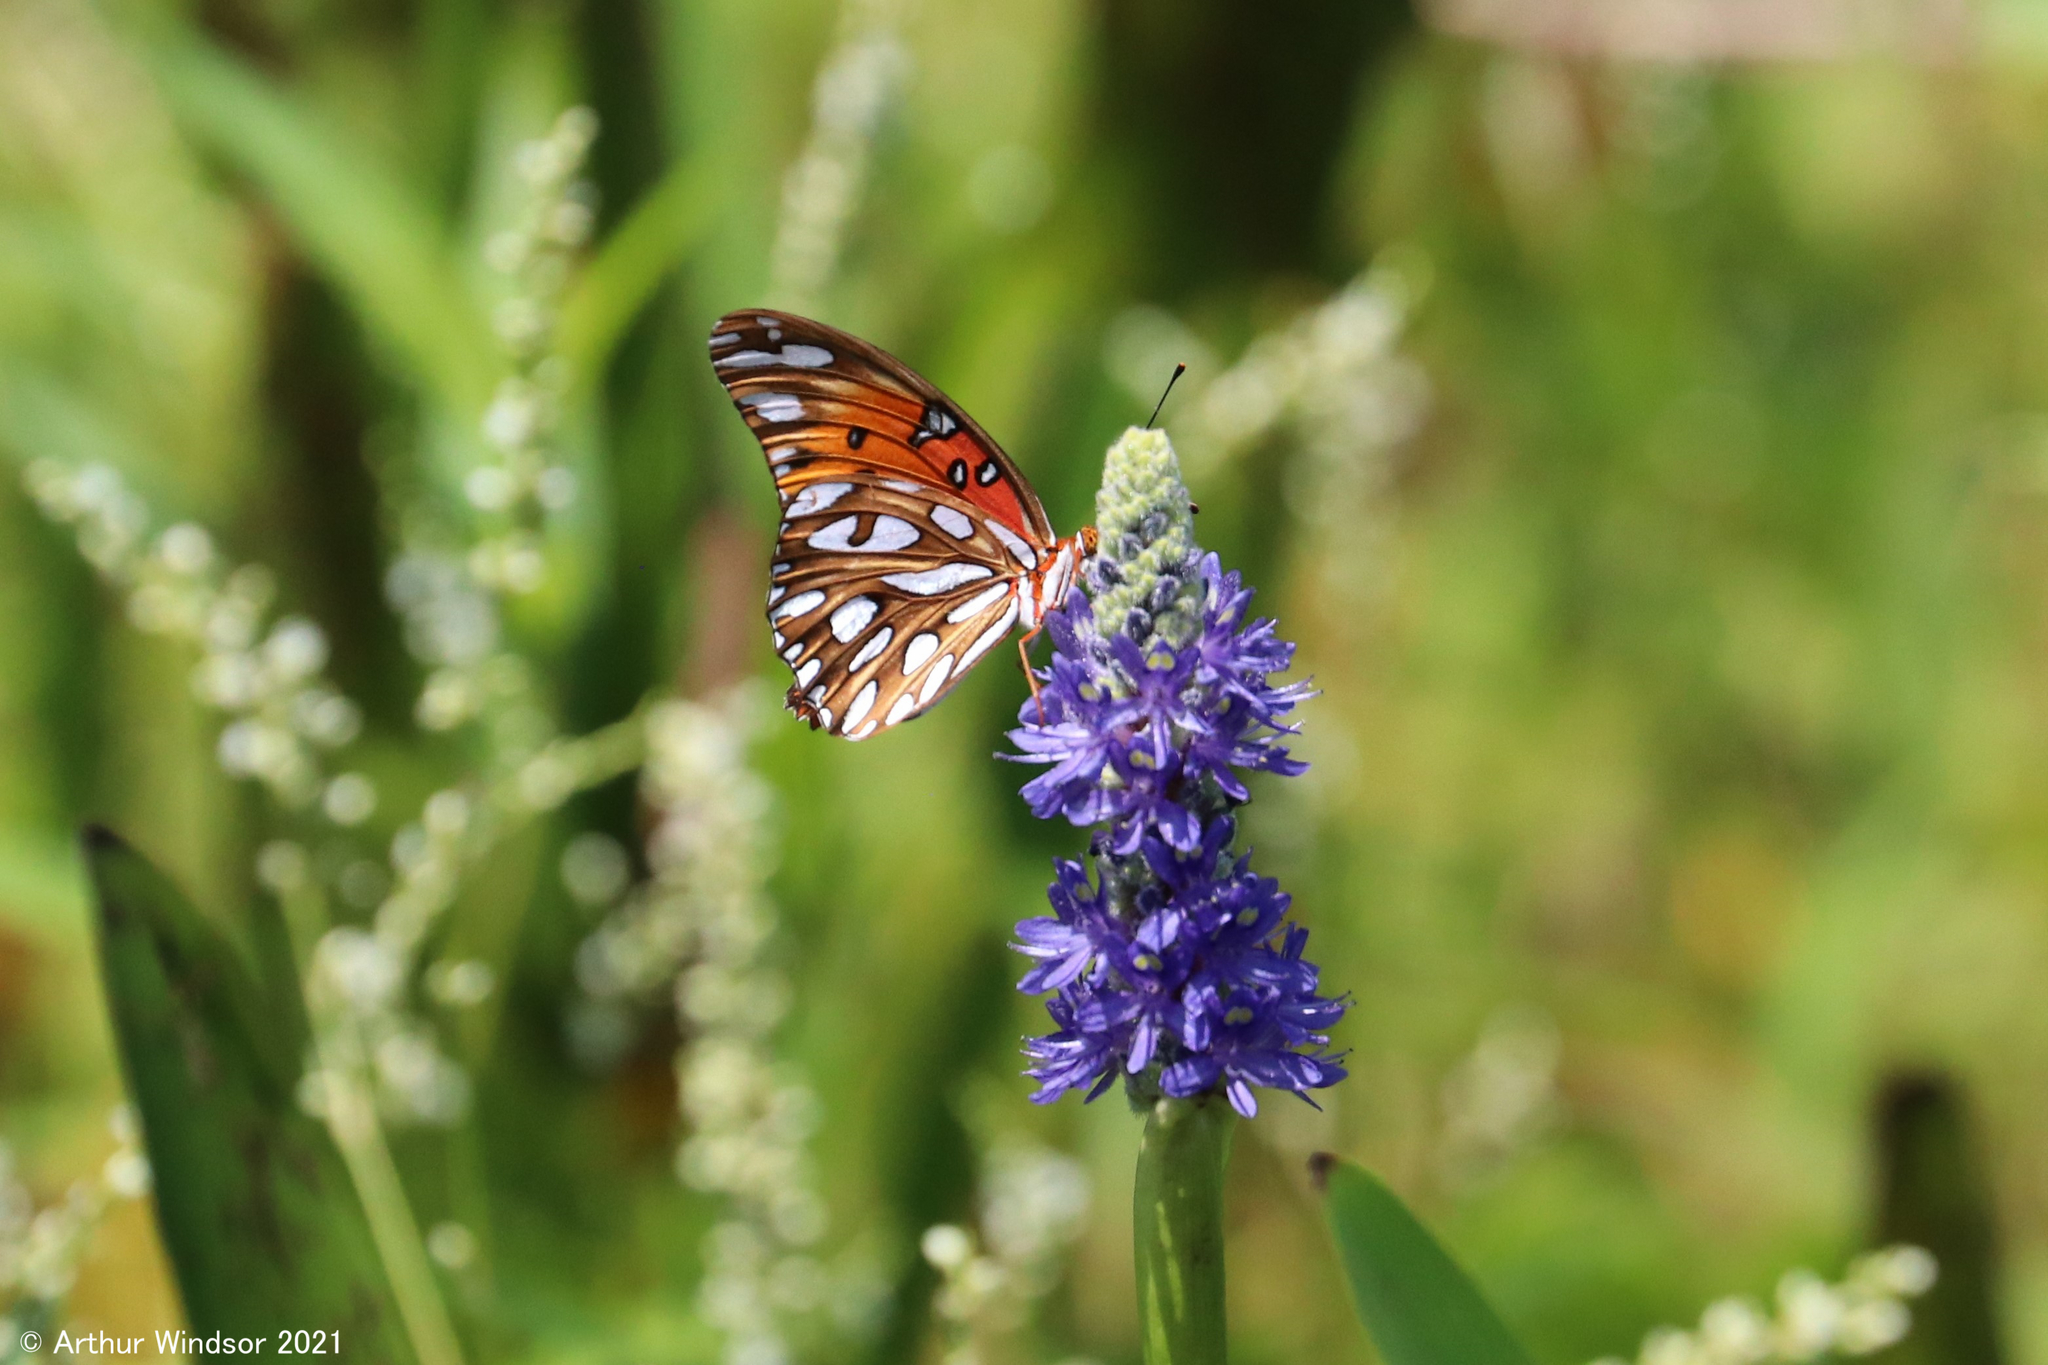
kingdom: Animalia
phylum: Arthropoda
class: Insecta
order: Lepidoptera
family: Nymphalidae
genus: Dione
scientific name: Dione vanillae
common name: Gulf fritillary
